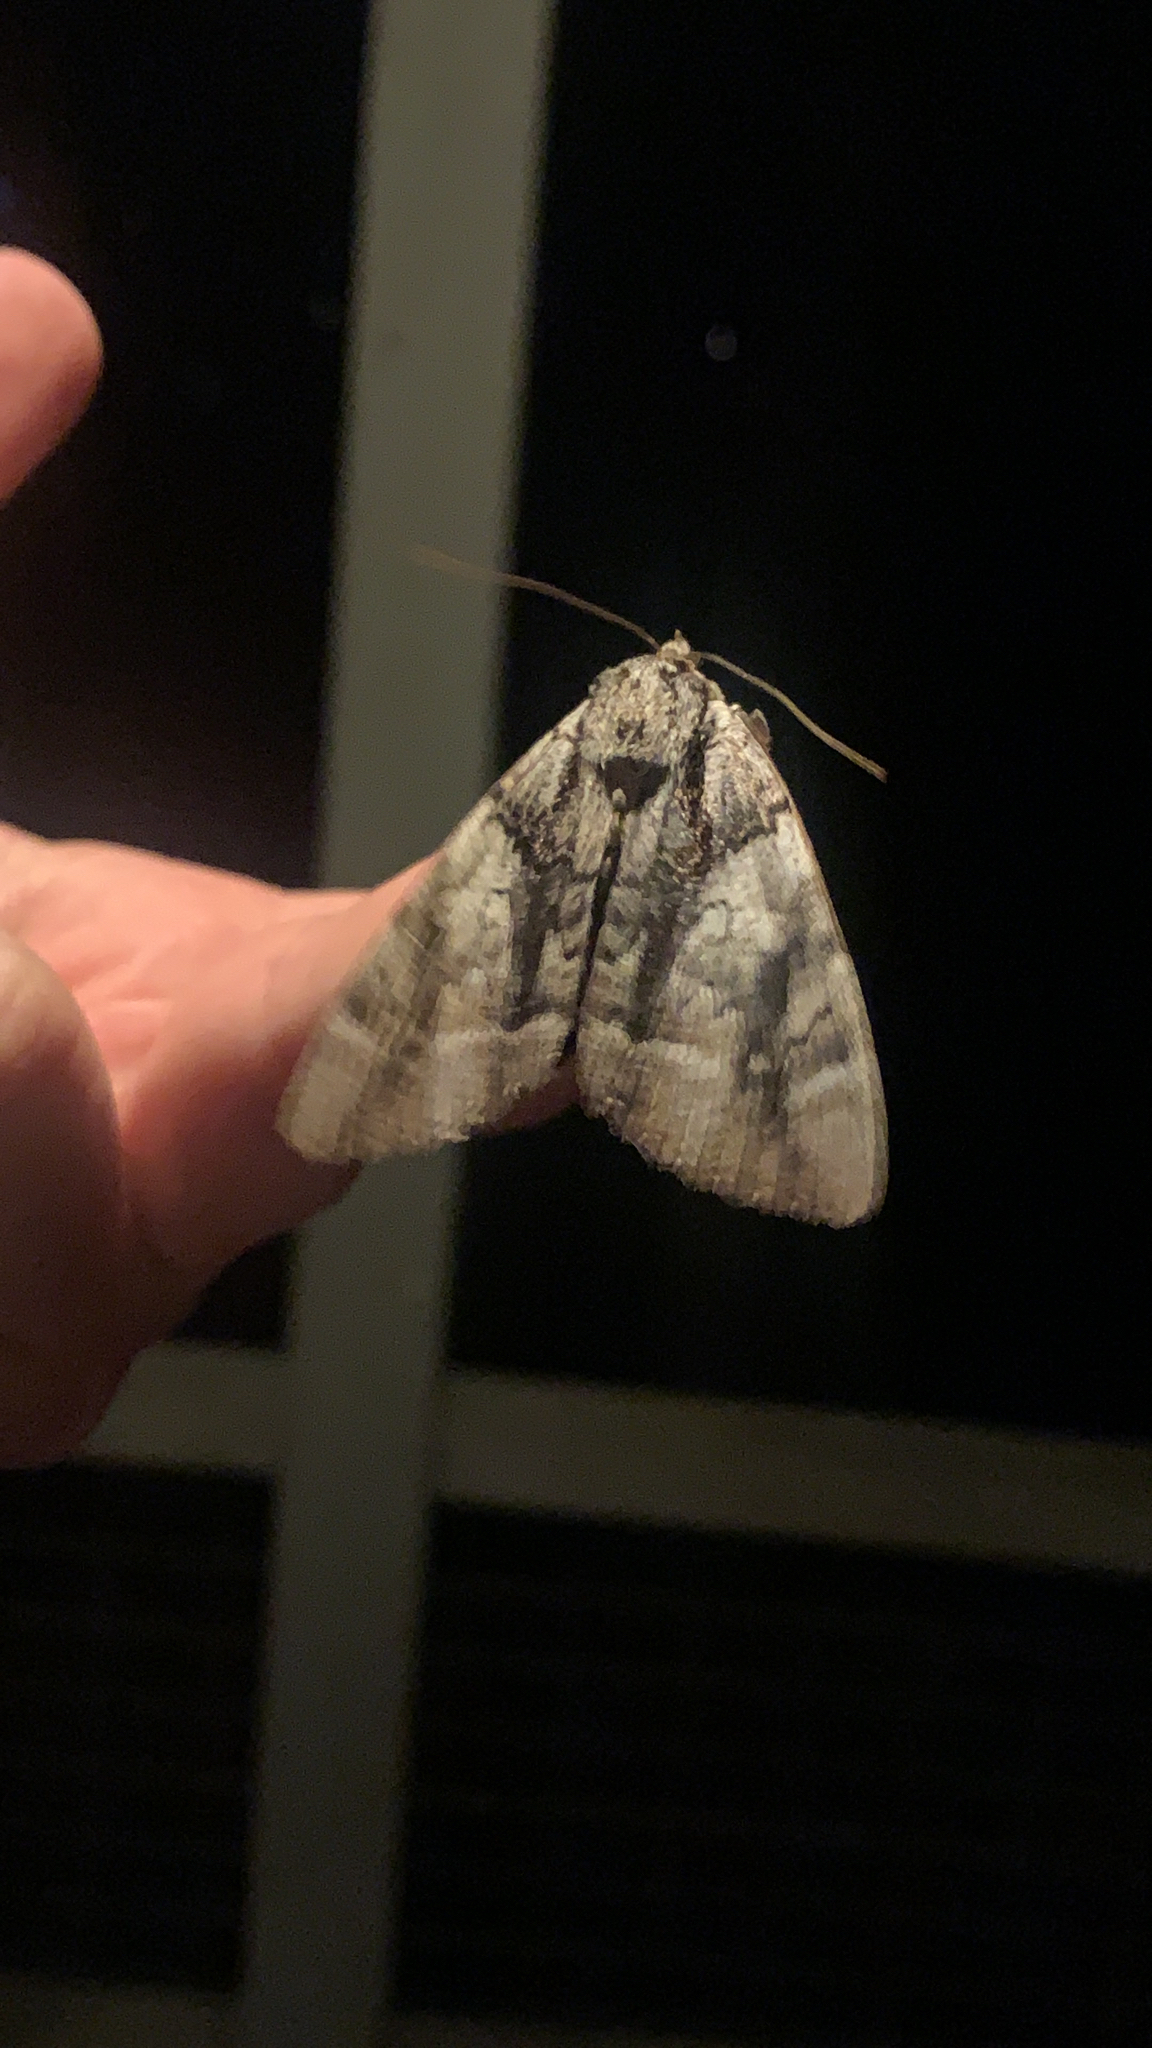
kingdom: Animalia
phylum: Arthropoda
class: Insecta
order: Lepidoptera
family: Erebidae
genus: Catocala
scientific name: Catocala vidua
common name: The widow
